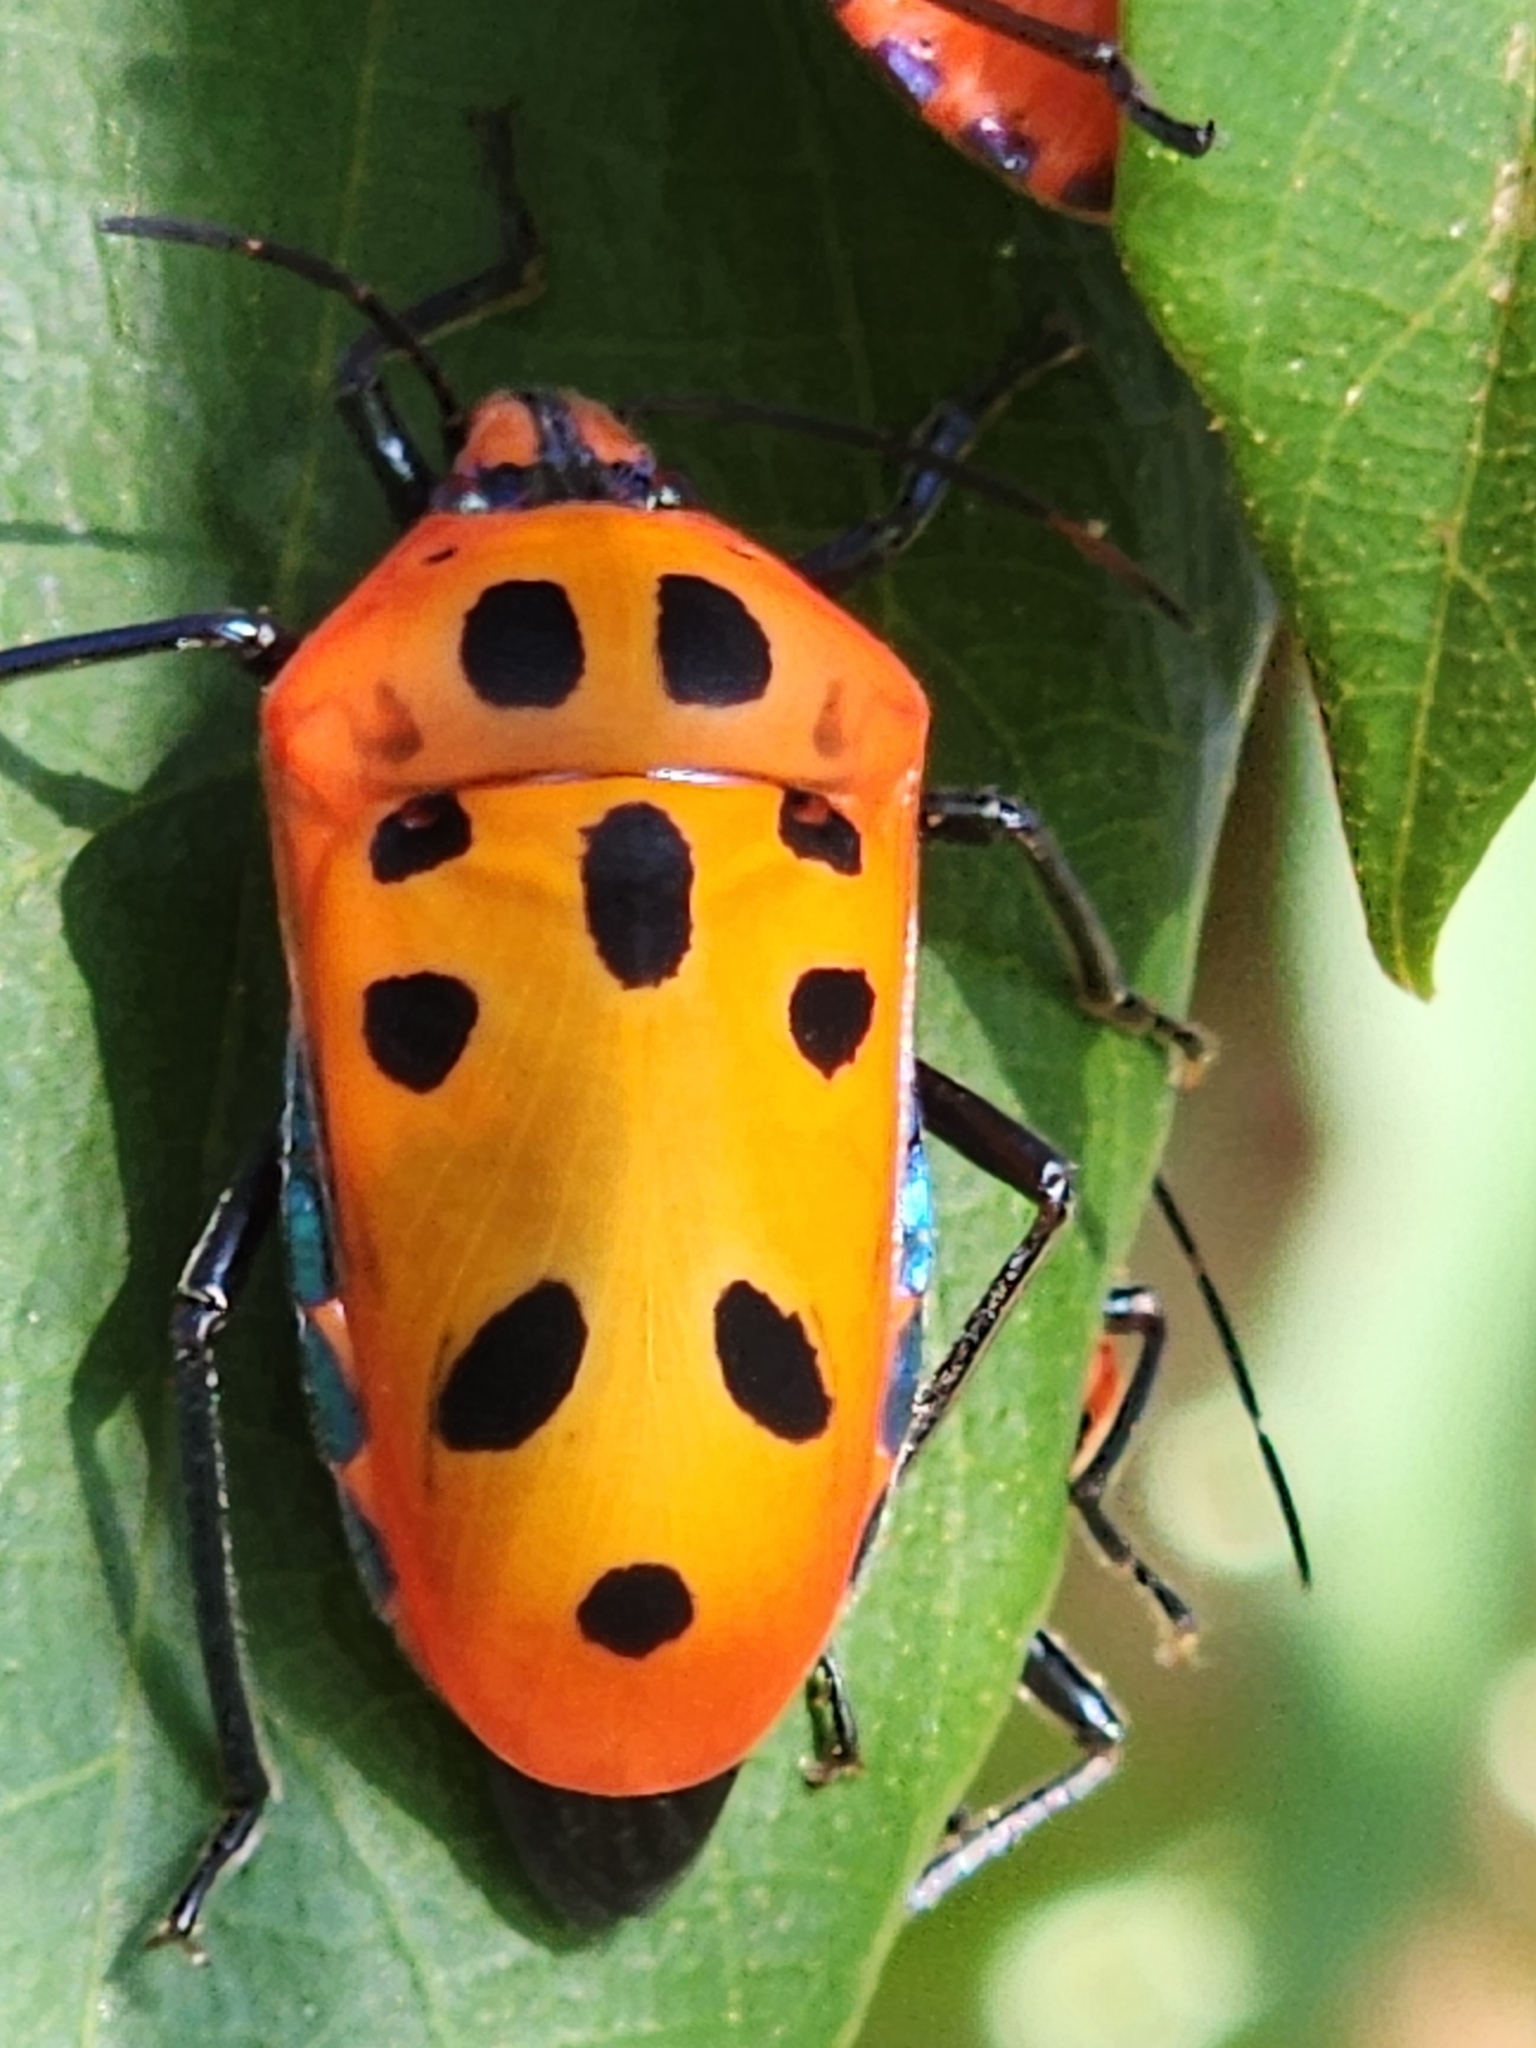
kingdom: Animalia
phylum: Arthropoda
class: Insecta
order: Hemiptera
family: Scutelleridae
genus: Cantao
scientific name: Cantao
